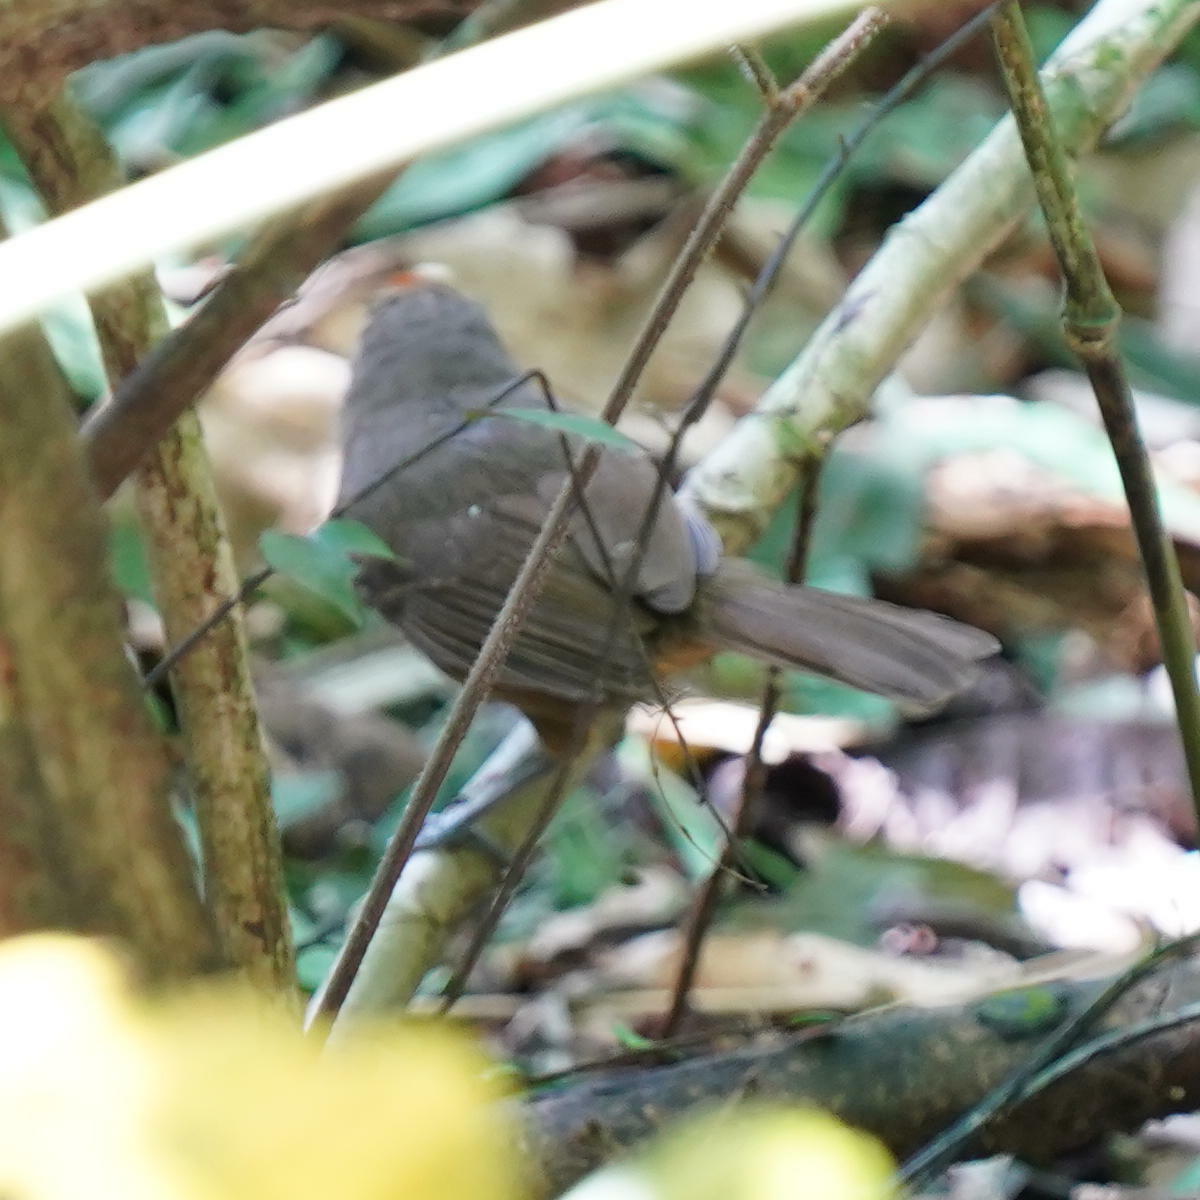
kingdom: Animalia
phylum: Chordata
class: Aves
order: Passeriformes
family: Thamnophilidae
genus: Cercomacra
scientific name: Cercomacra tyrannina
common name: Dusky antbird
